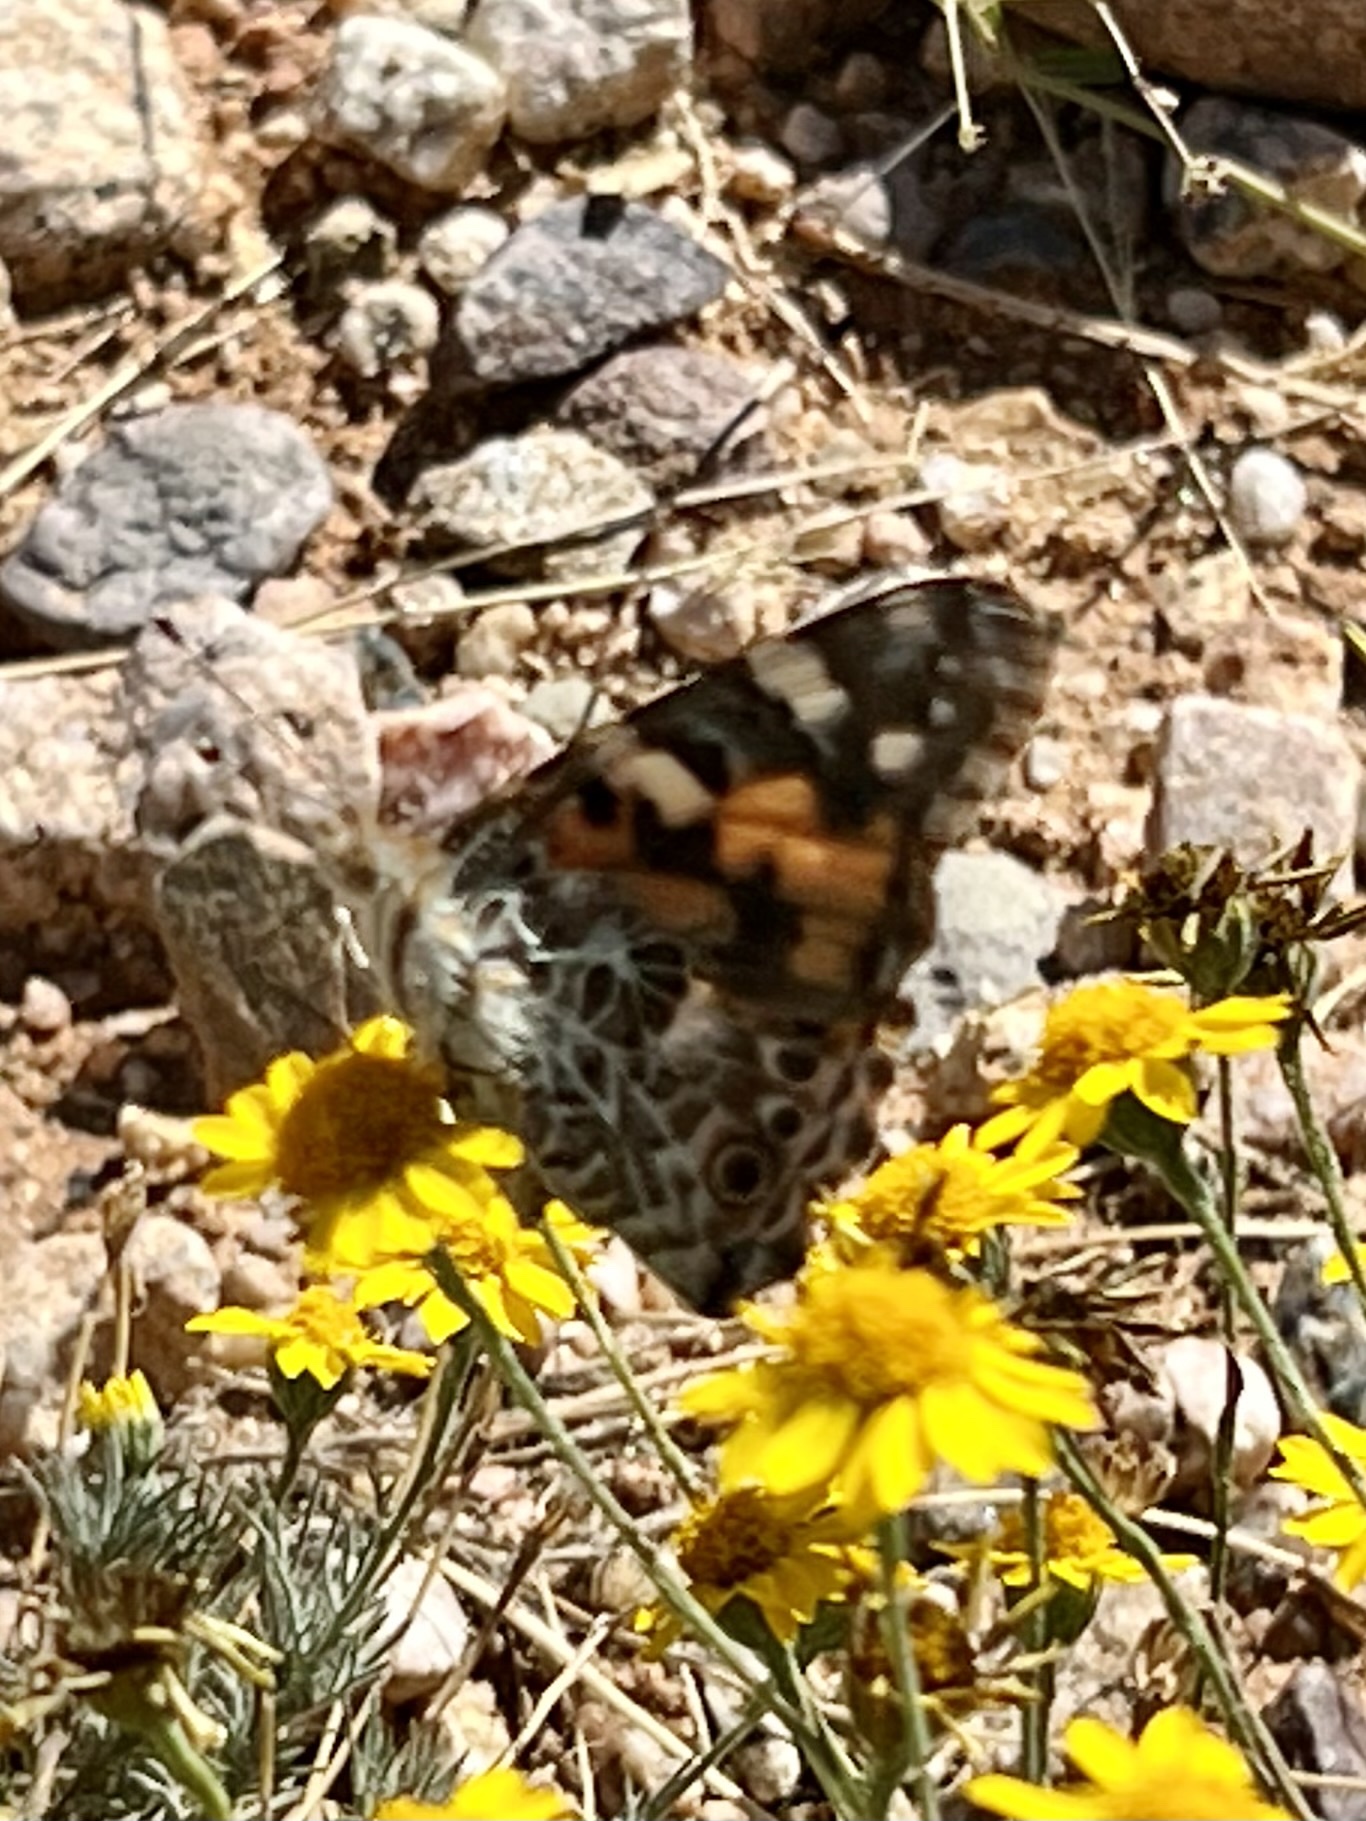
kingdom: Animalia
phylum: Arthropoda
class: Insecta
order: Lepidoptera
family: Nymphalidae
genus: Vanessa
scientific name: Vanessa cardui
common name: Painted lady
